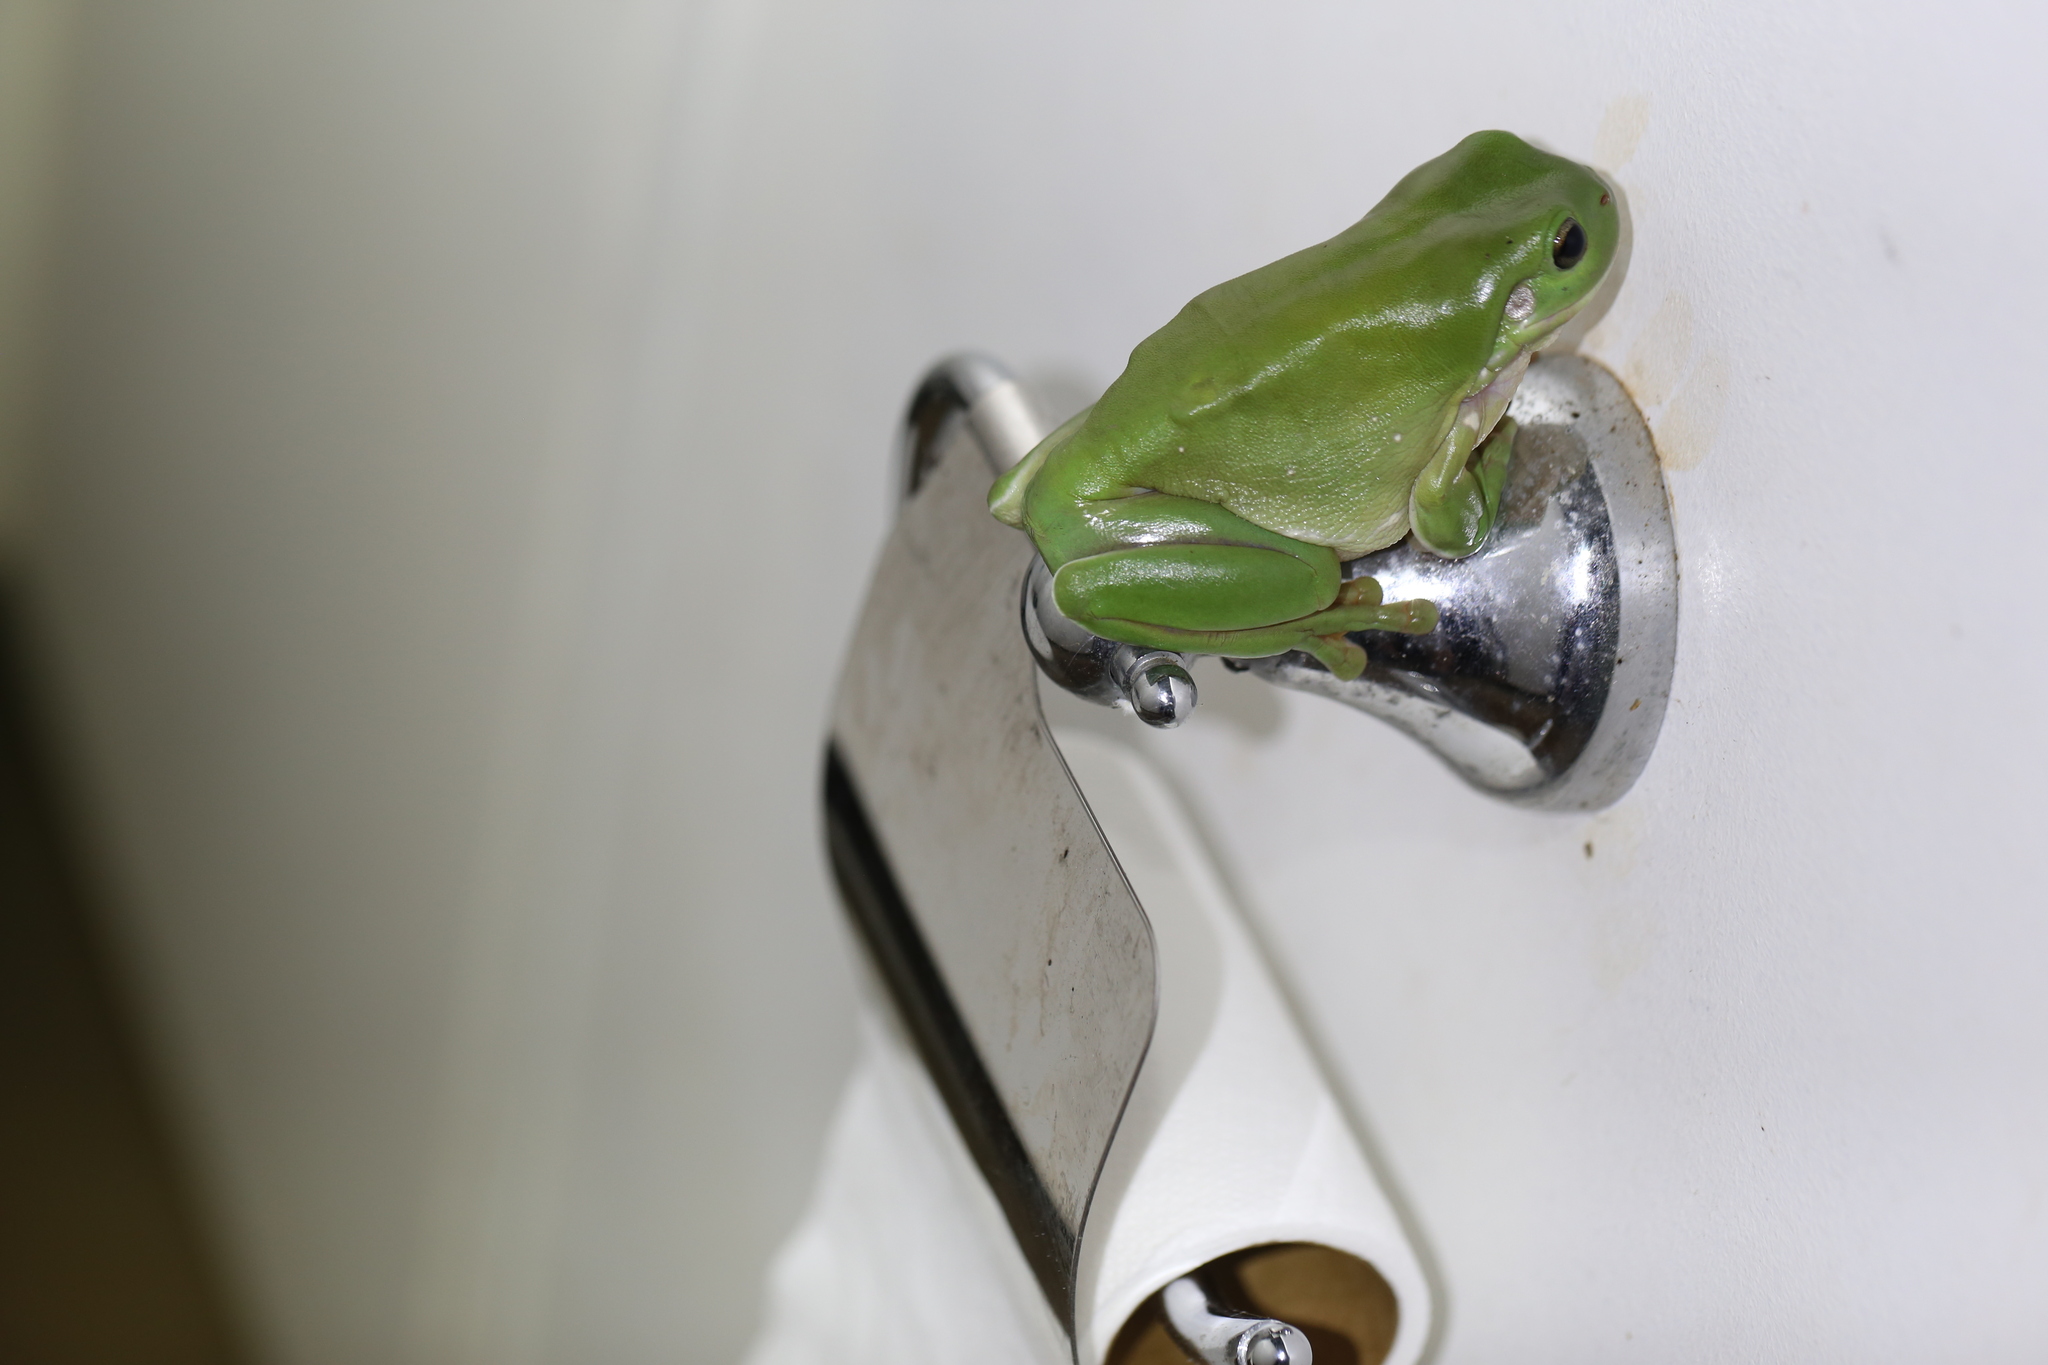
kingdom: Animalia
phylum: Chordata
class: Amphibia
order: Anura
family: Pelodryadidae
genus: Ranoidea
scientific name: Ranoidea caerulea
